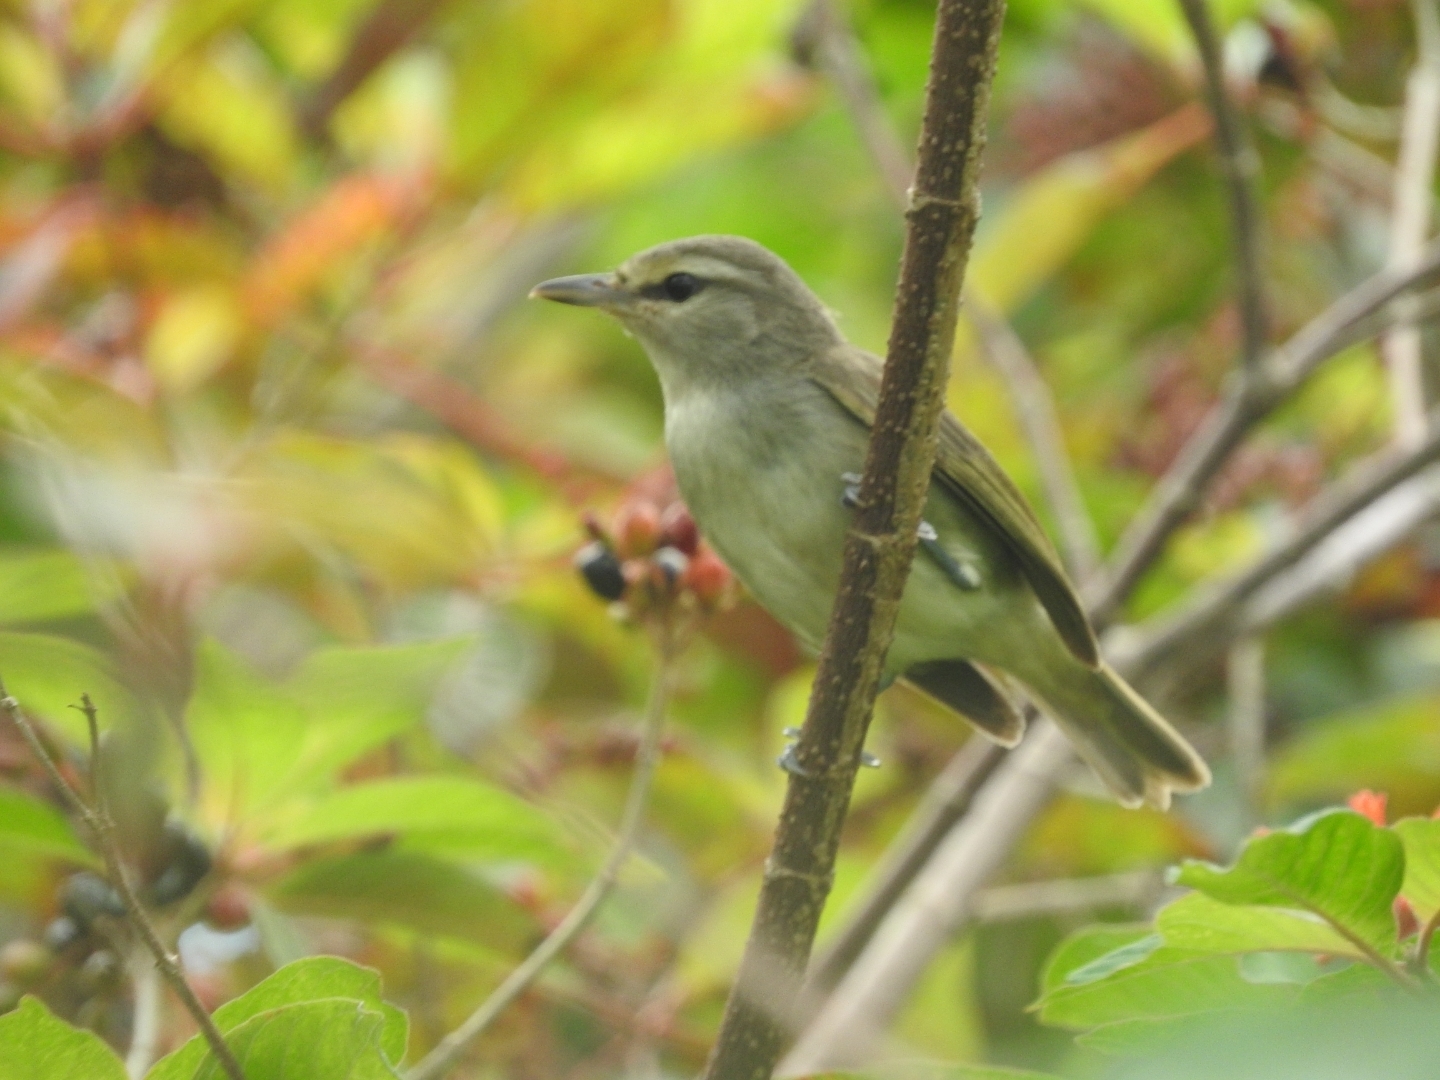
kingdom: Animalia
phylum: Chordata
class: Aves
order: Passeriformes
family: Vireonidae
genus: Vireo
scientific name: Vireo magister
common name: Yucatan vireo
